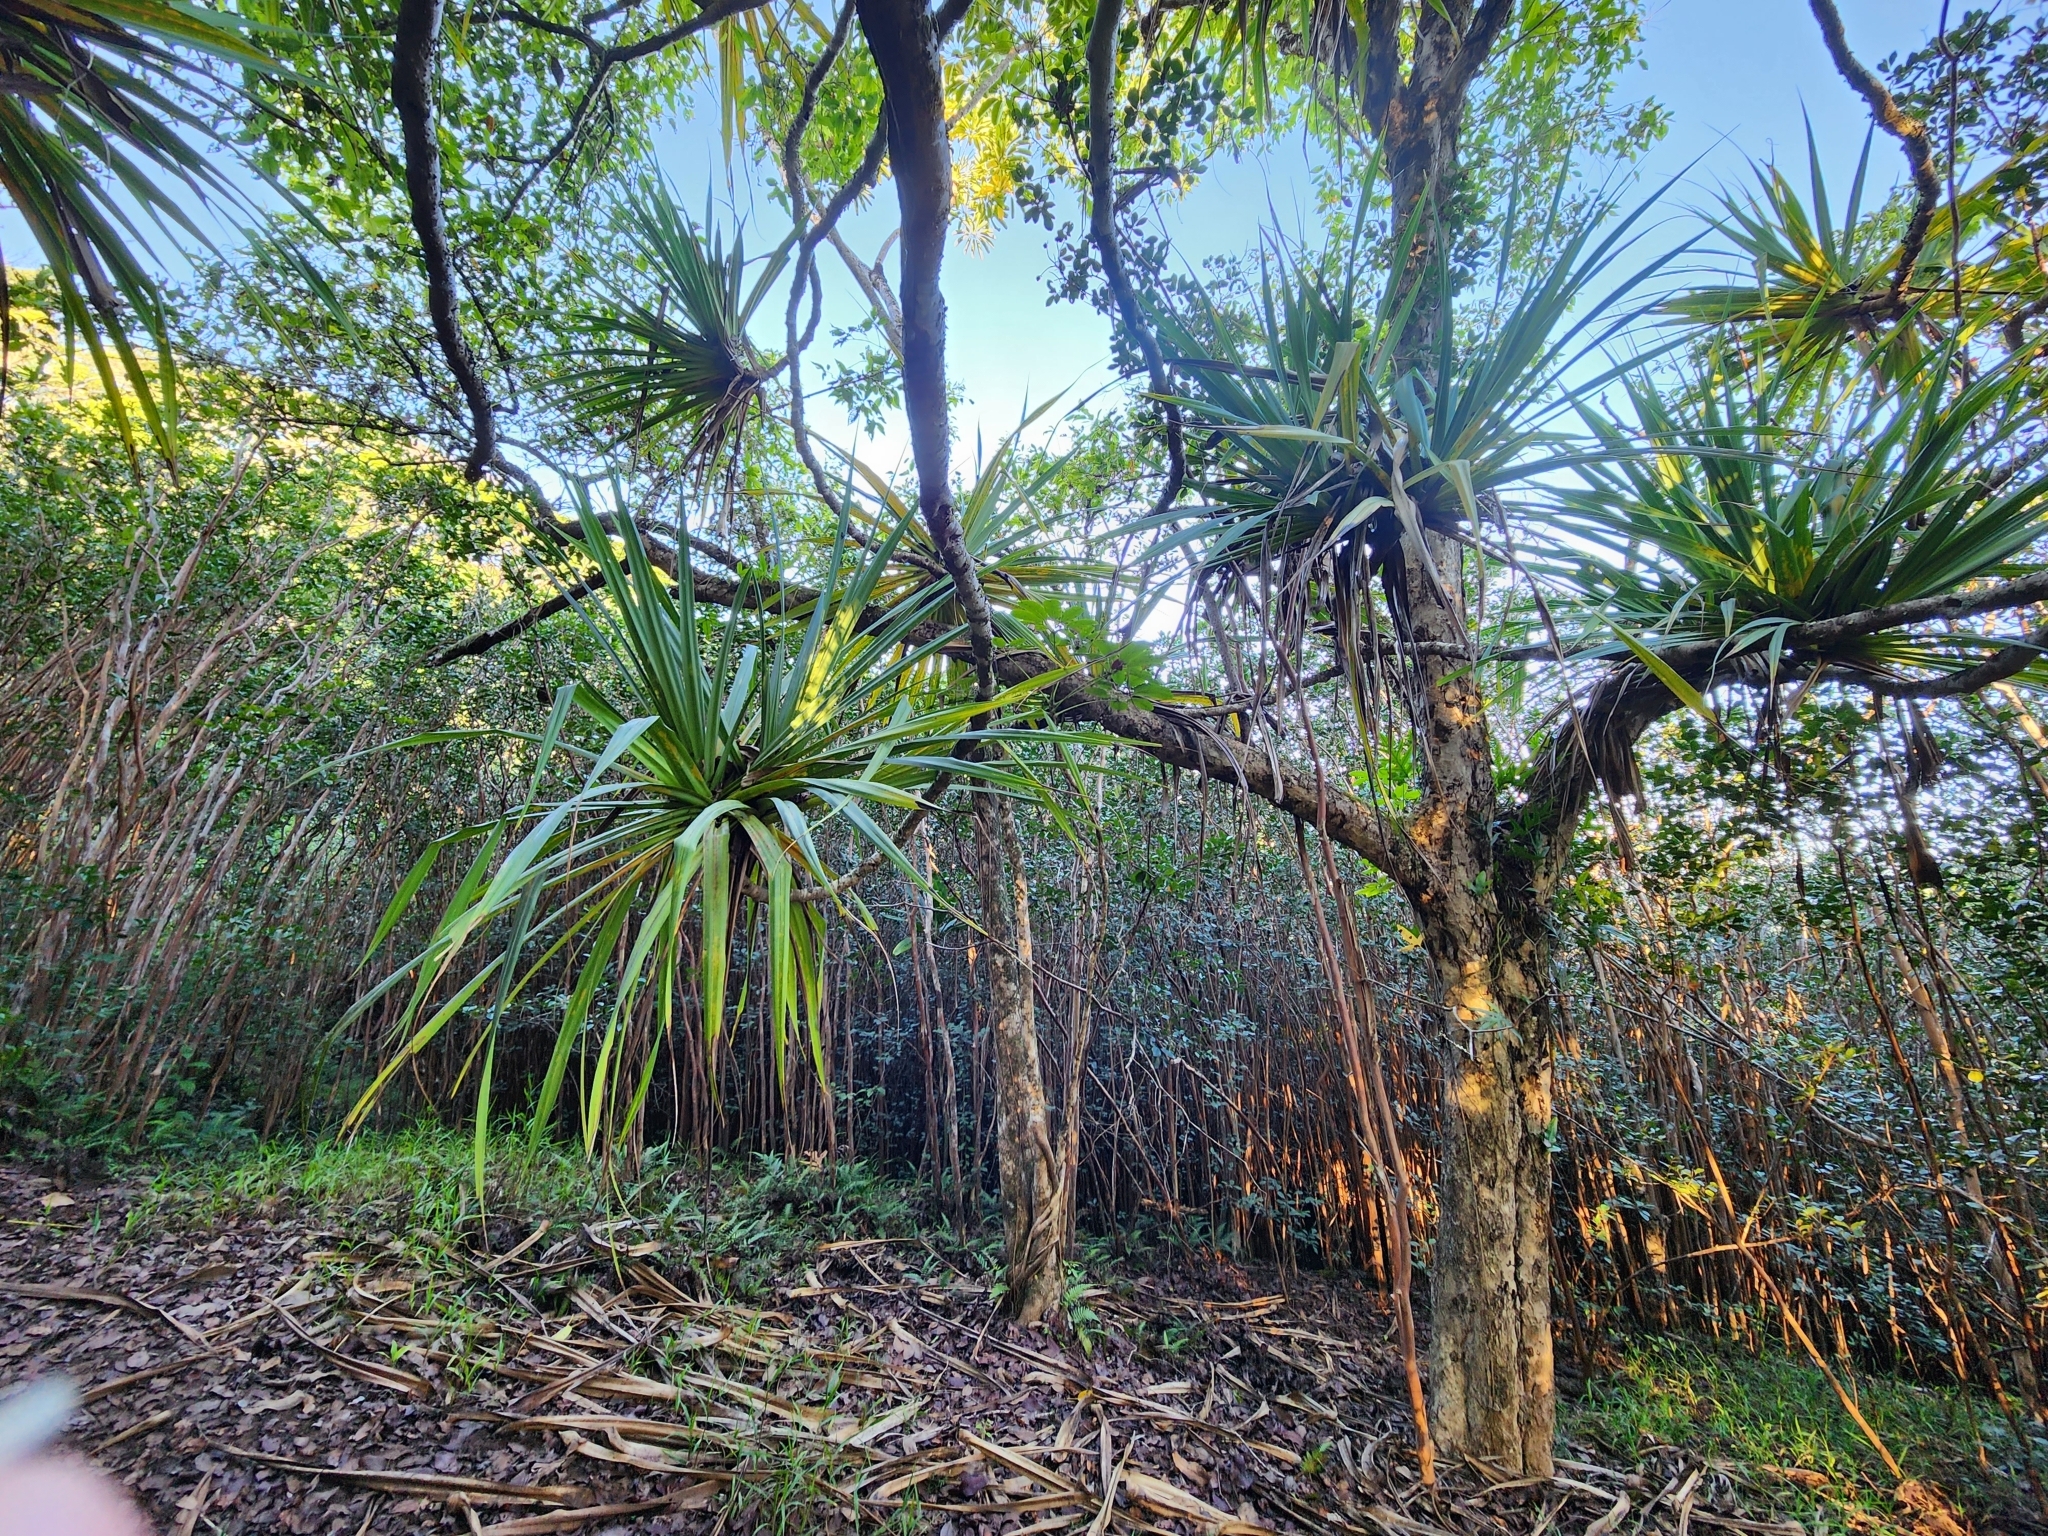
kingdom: Plantae
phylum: Tracheophyta
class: Liliopsida
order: Pandanales
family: Pandanaceae
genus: Pandanus
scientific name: Pandanus tectorius
